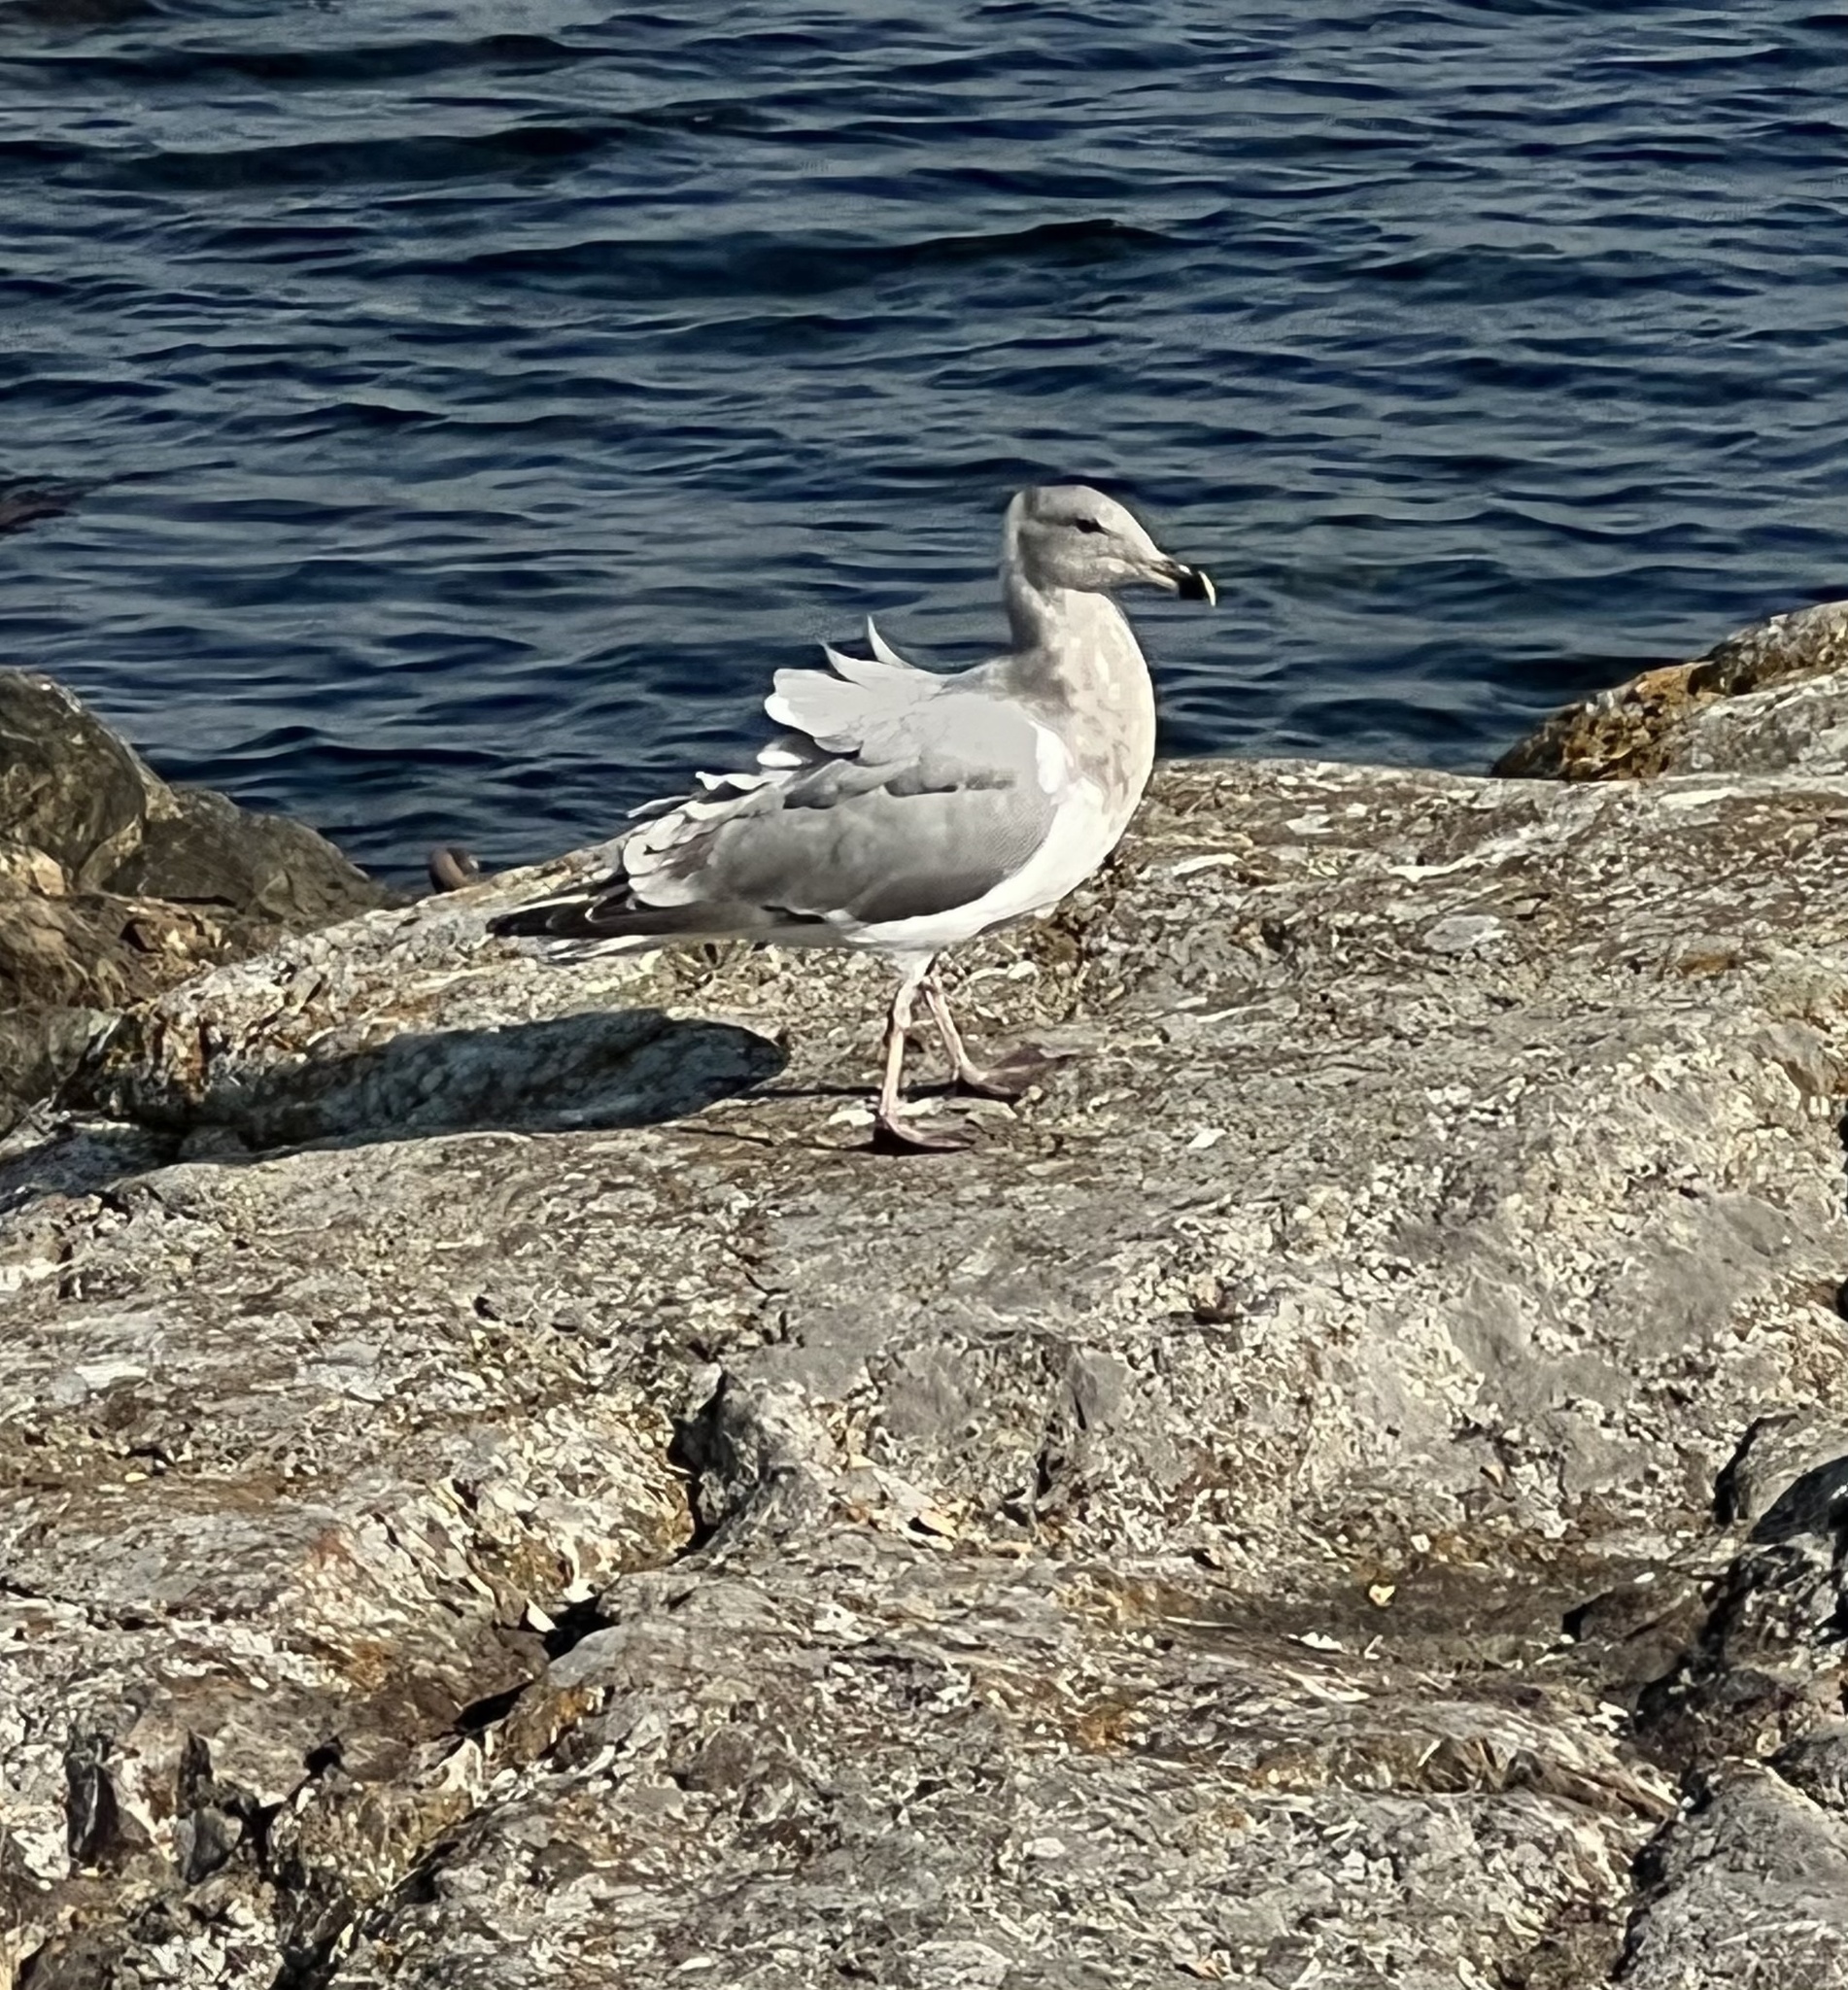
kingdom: Animalia
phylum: Chordata
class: Aves
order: Charadriiformes
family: Laridae
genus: Larus
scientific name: Larus
